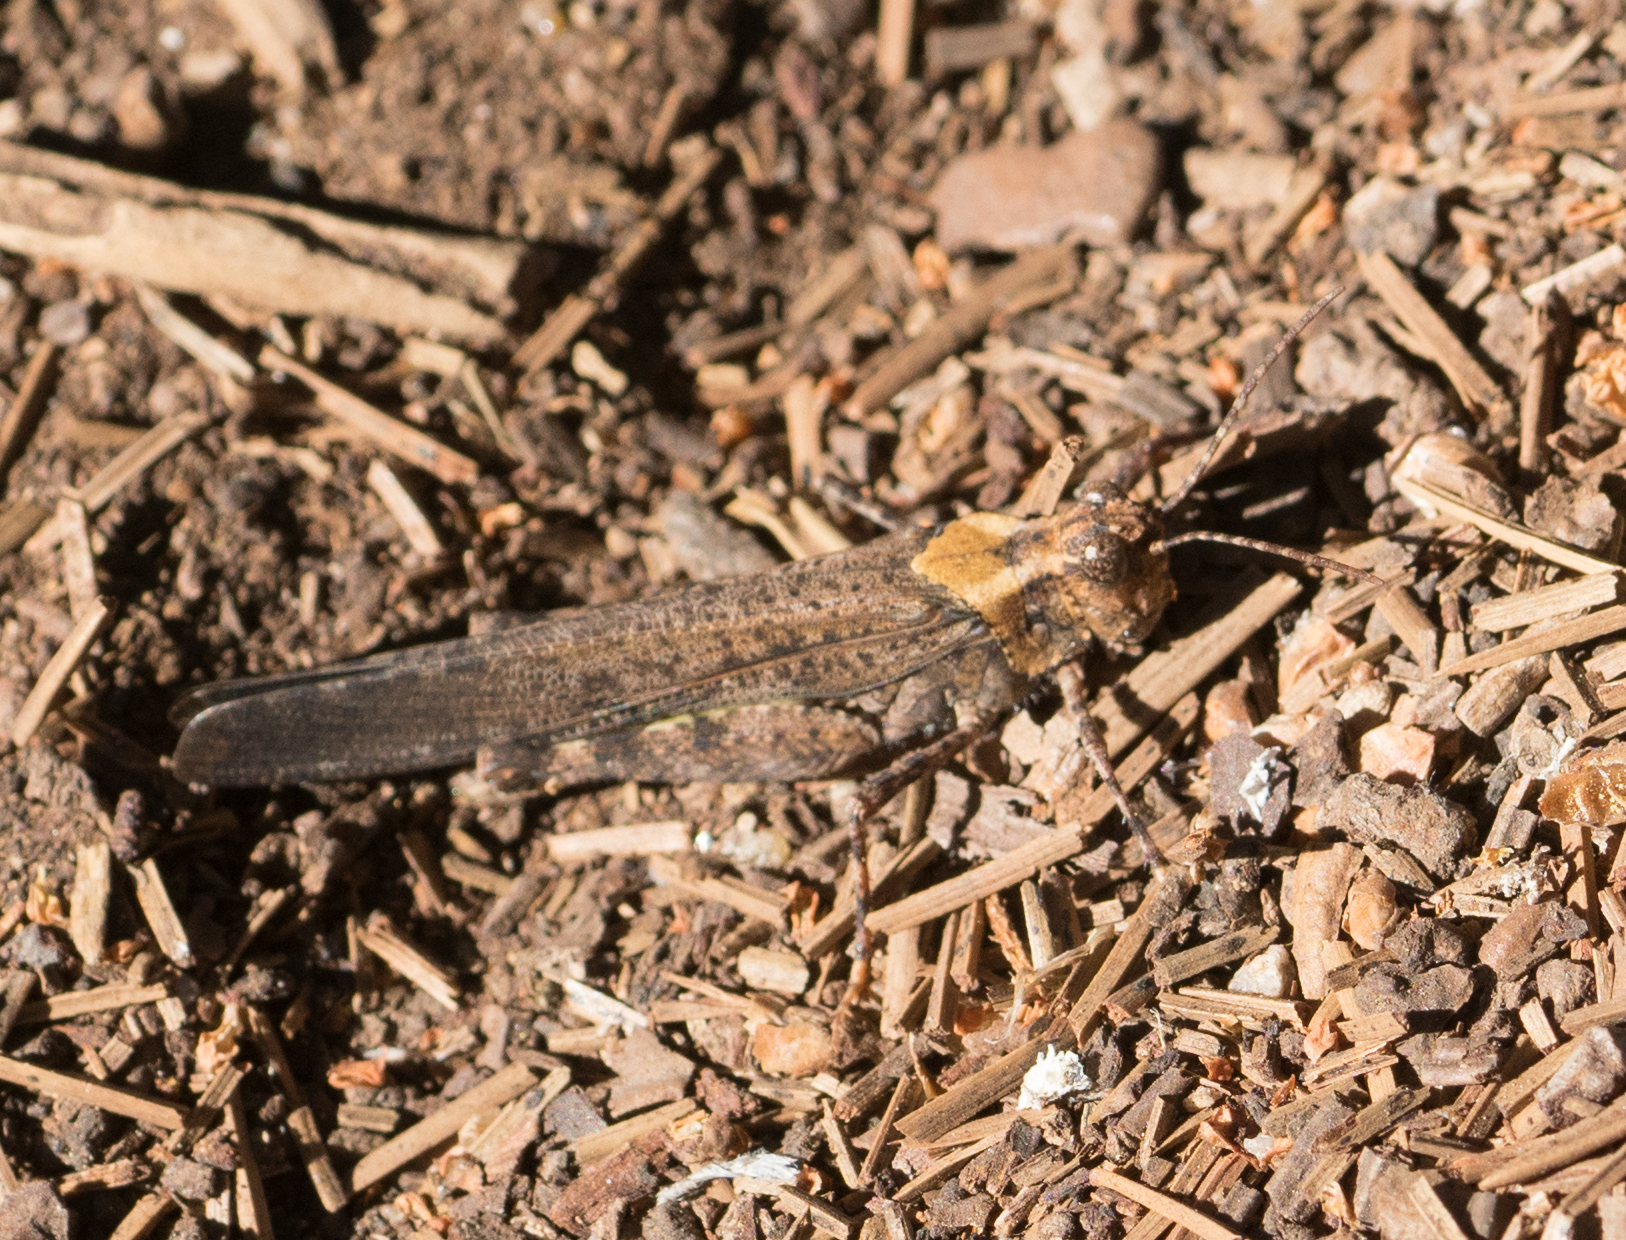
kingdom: Animalia
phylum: Arthropoda
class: Insecta
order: Orthoptera
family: Acrididae
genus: Trimerotropis
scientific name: Trimerotropis verruculata
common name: Crackling forest grasshopper
